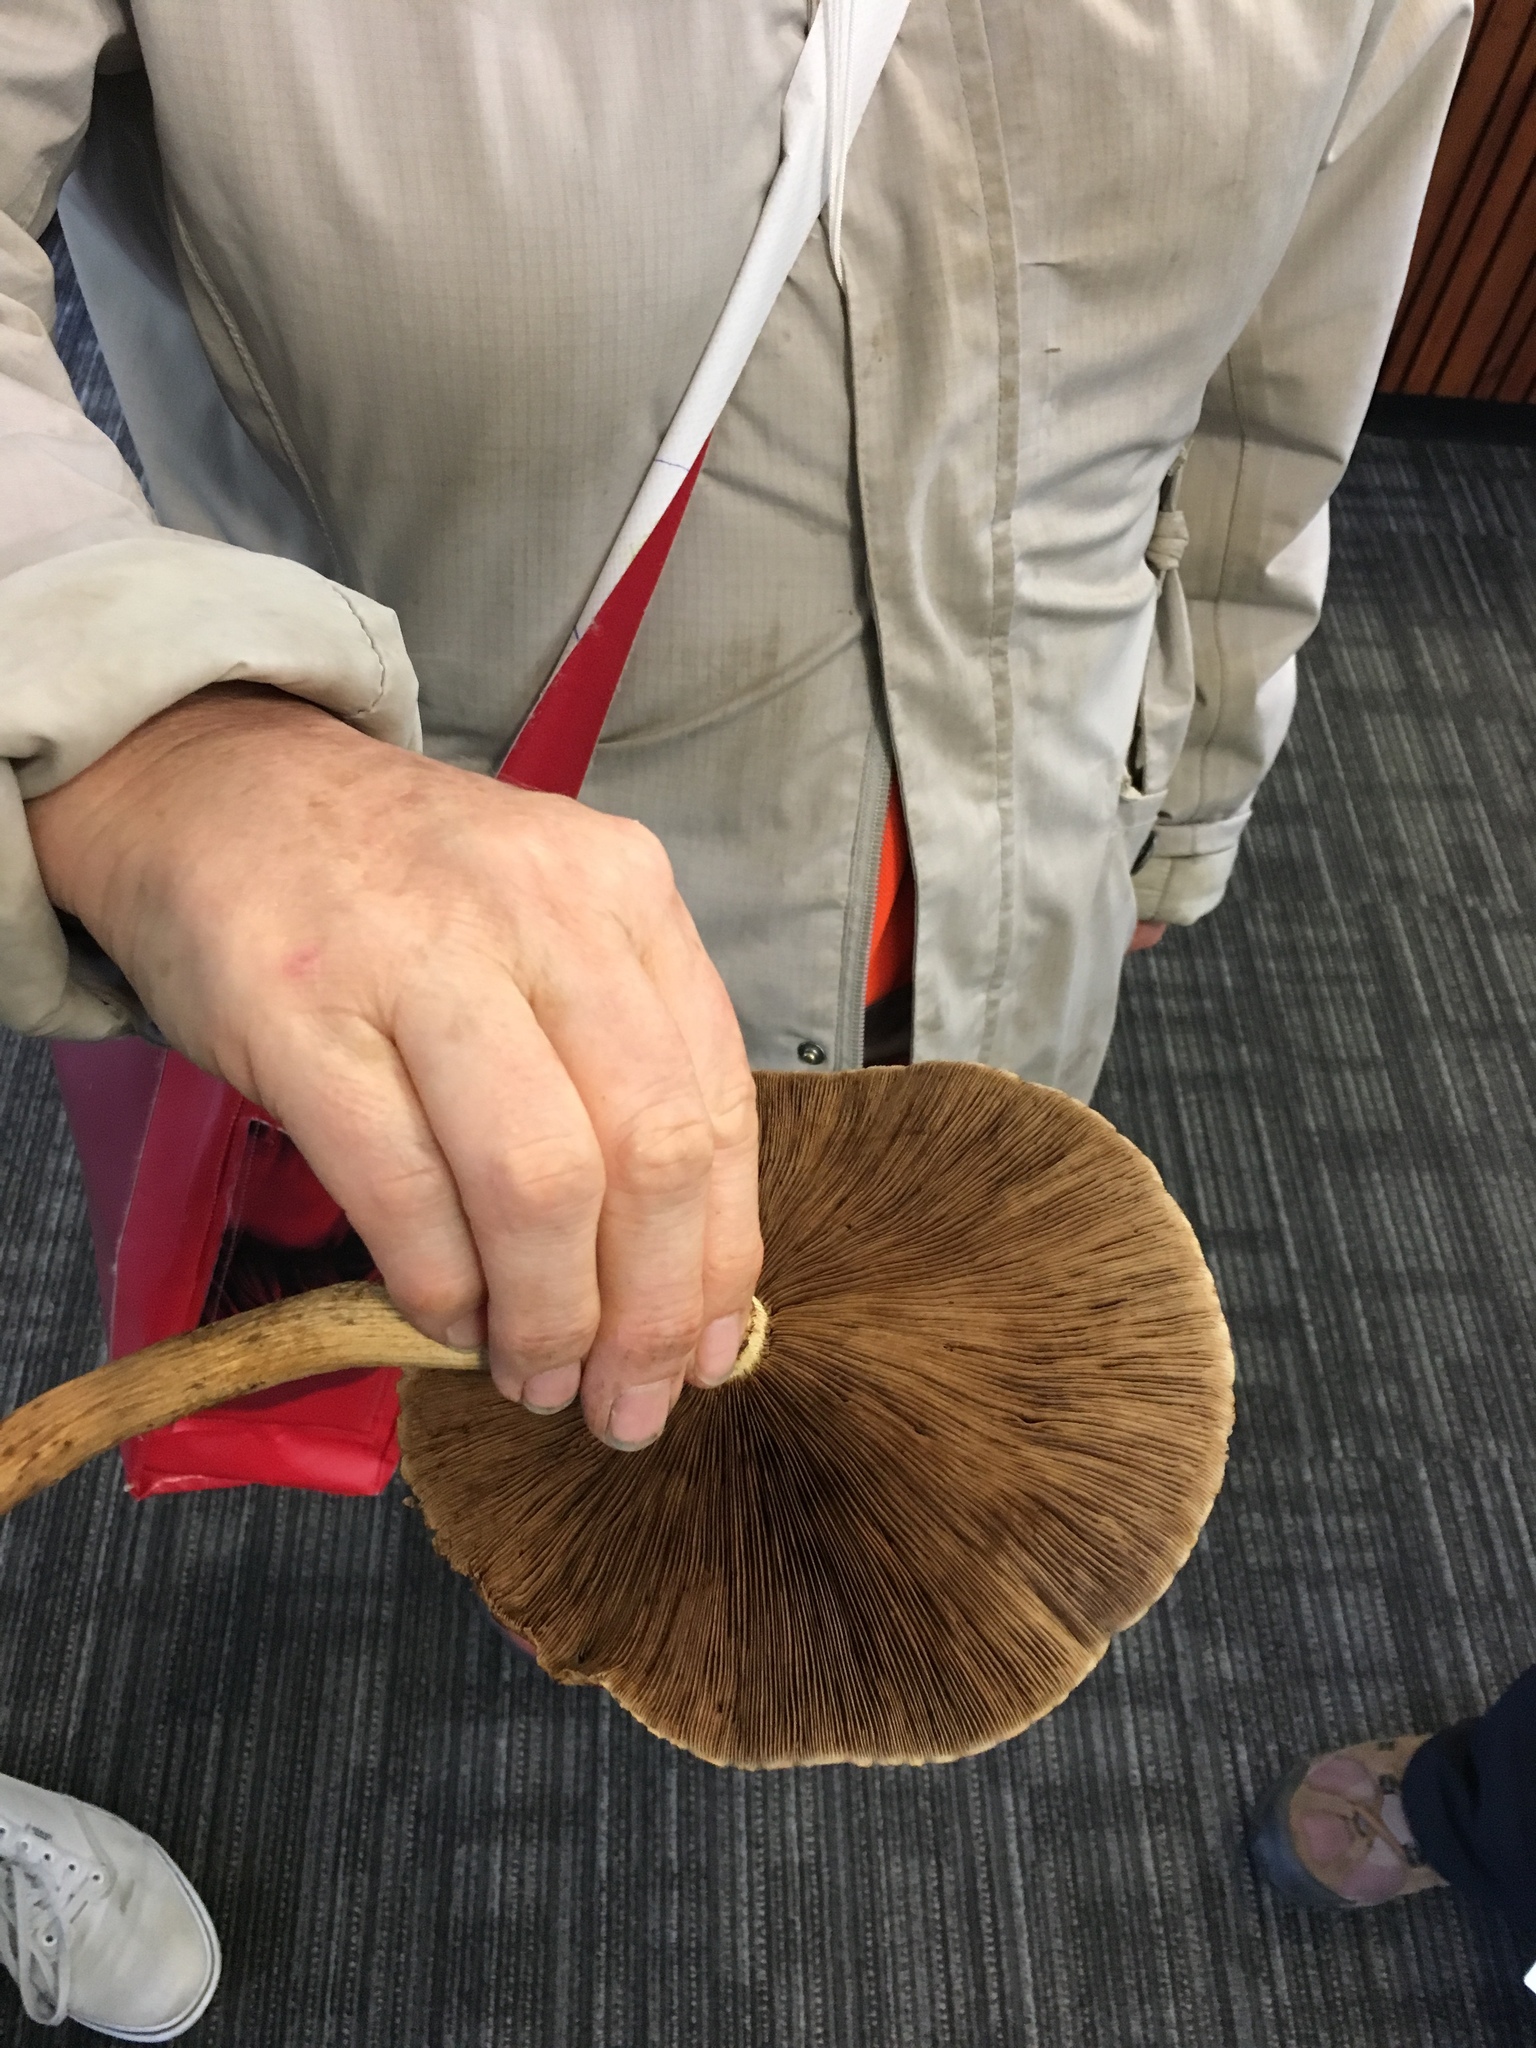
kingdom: Fungi
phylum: Basidiomycota
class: Agaricomycetes
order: Agaricales
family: Tubariaceae
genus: Cyclocybe
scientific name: Cyclocybe parasitica
